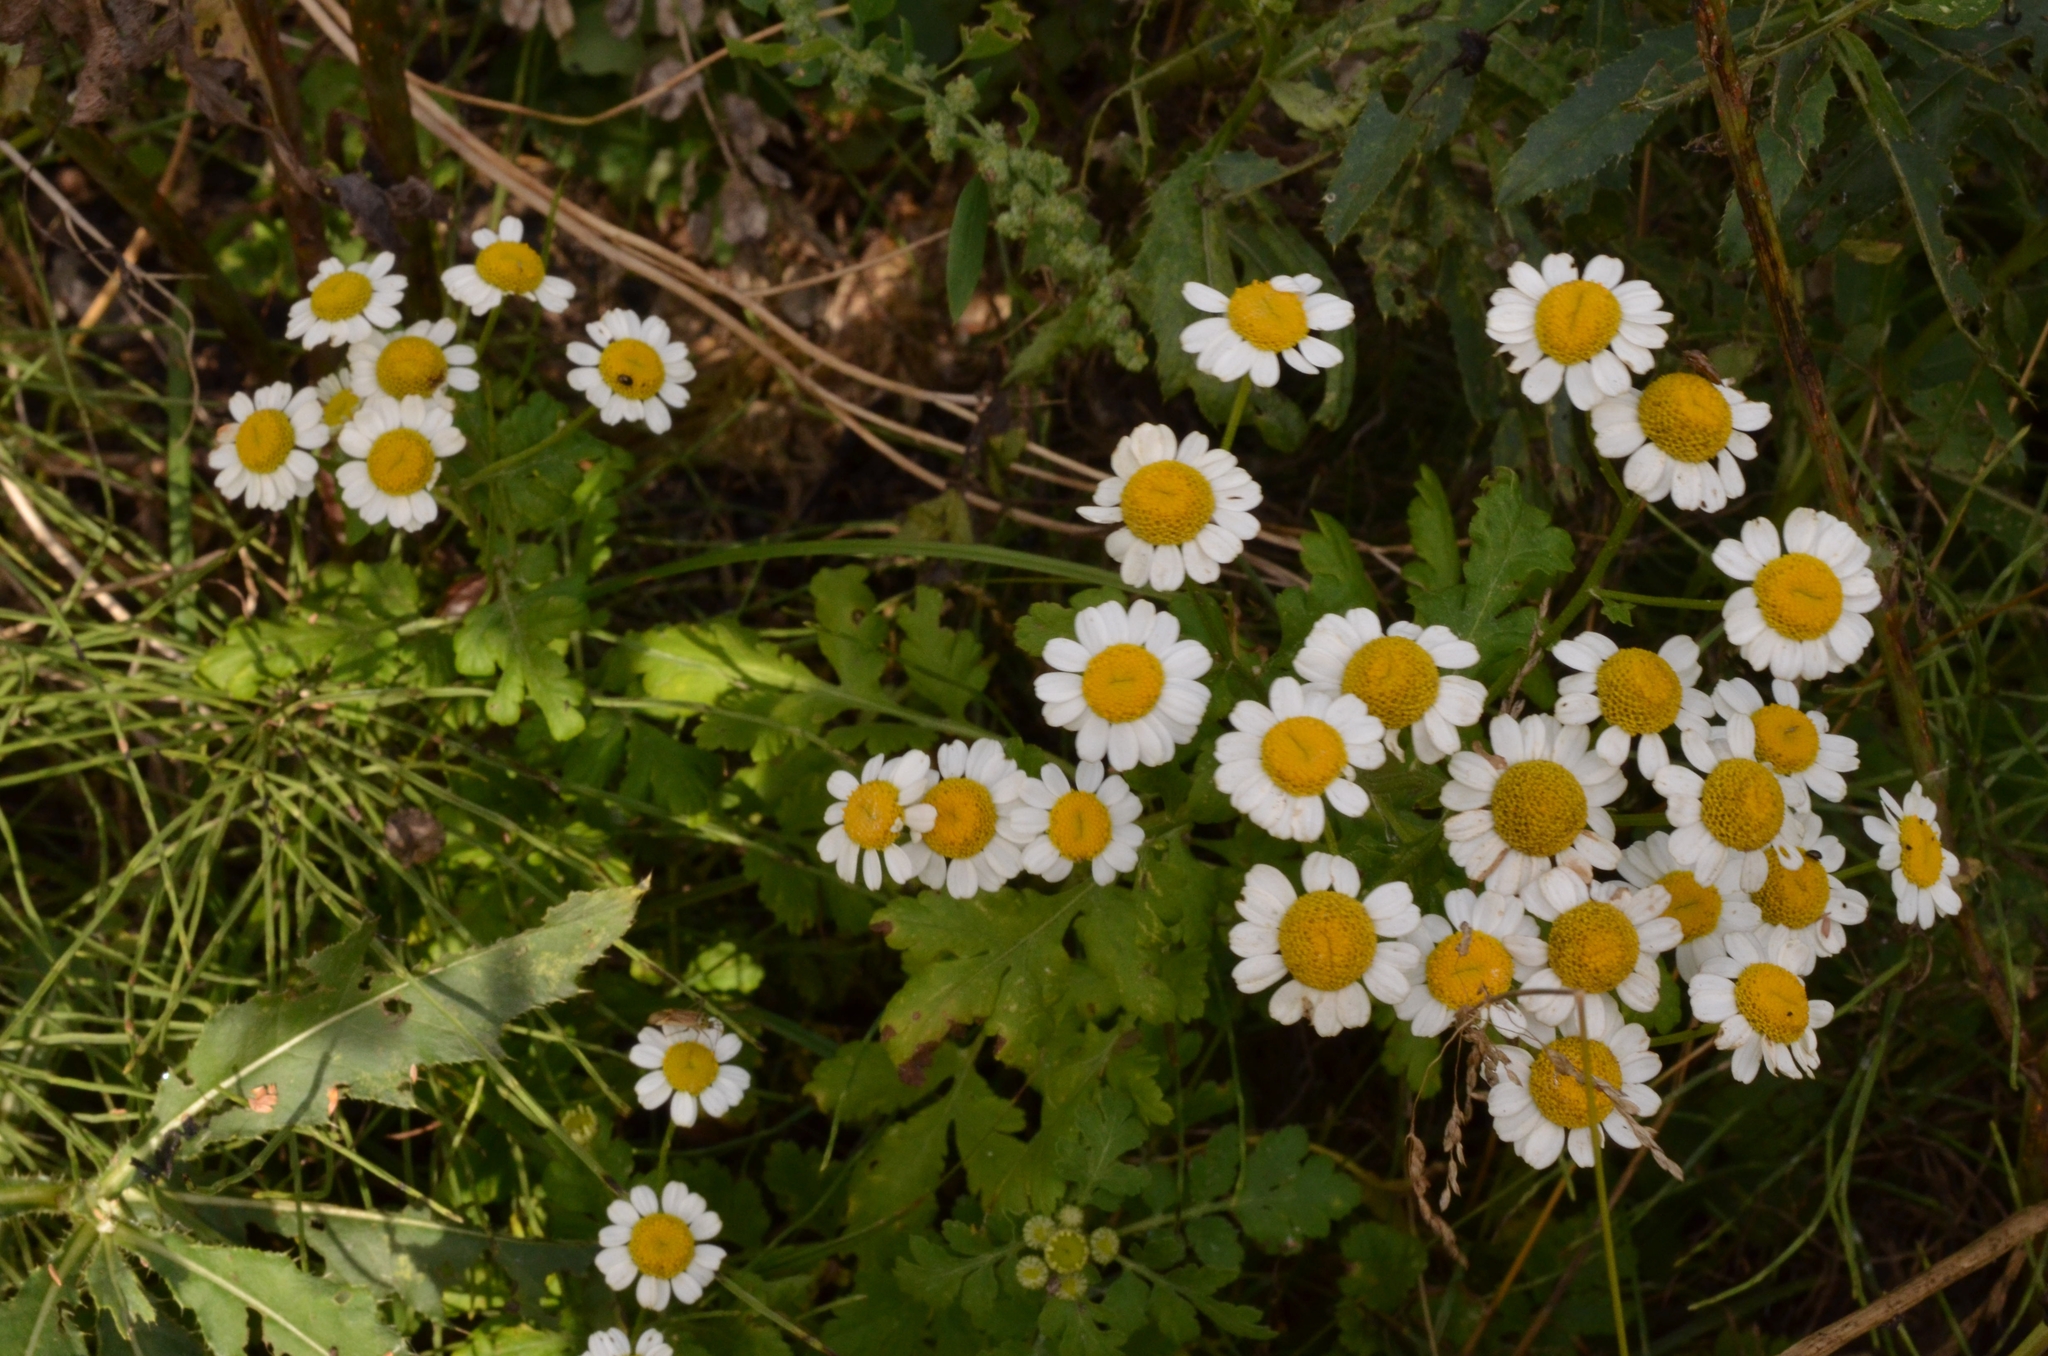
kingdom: Plantae
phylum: Tracheophyta
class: Magnoliopsida
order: Asterales
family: Asteraceae
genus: Tanacetum
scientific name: Tanacetum parthenium
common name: Feverfew
